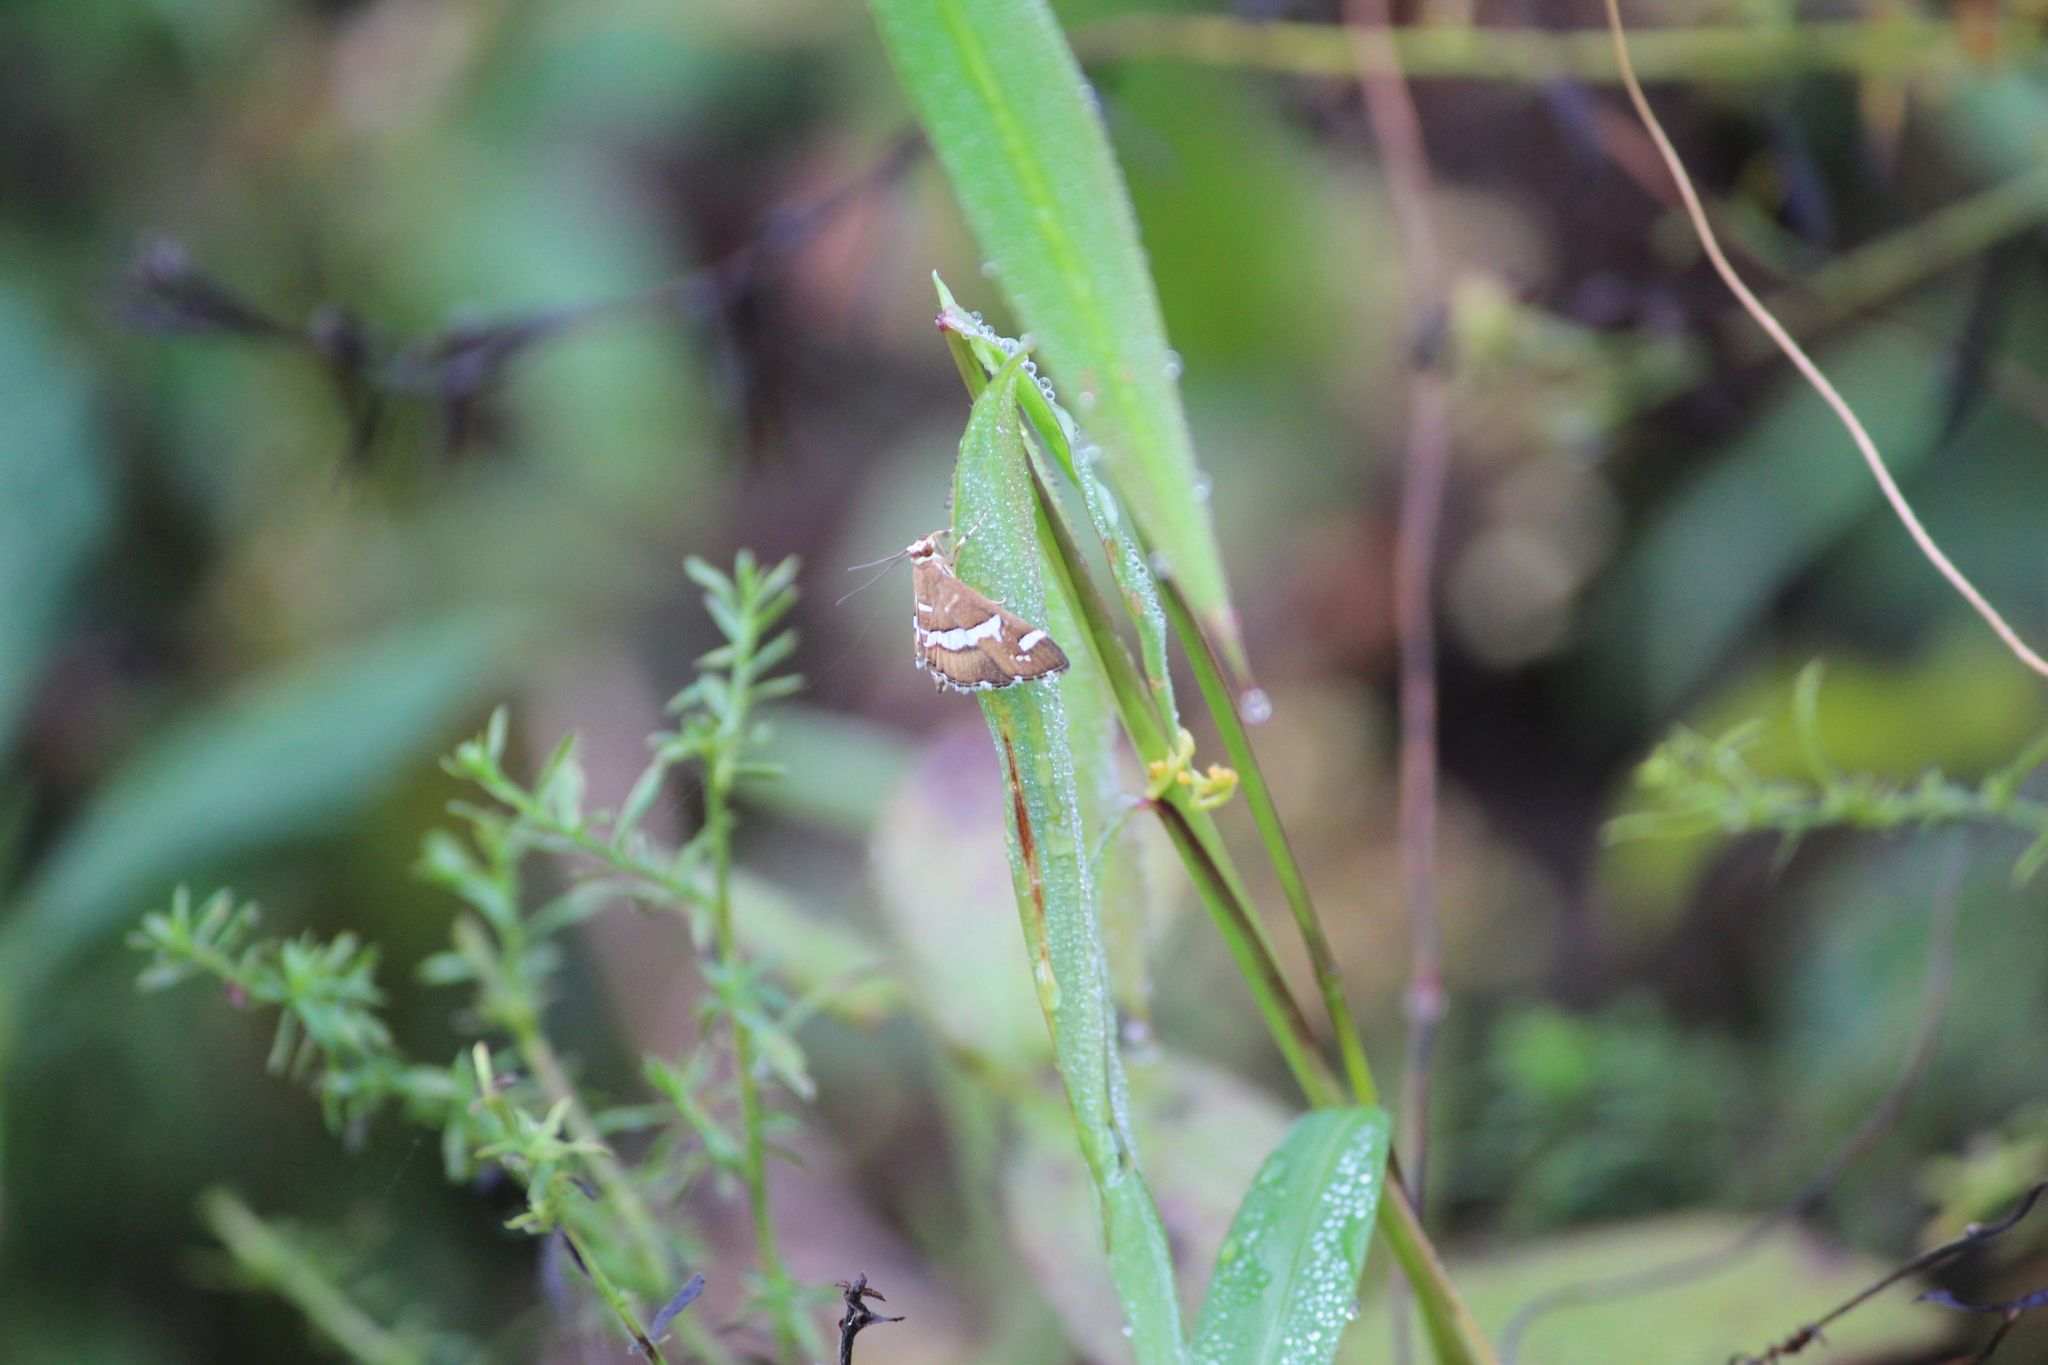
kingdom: Animalia
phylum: Arthropoda
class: Insecta
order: Lepidoptera
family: Crambidae
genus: Spoladea
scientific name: Spoladea recurvalis
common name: Beet webworm moth
